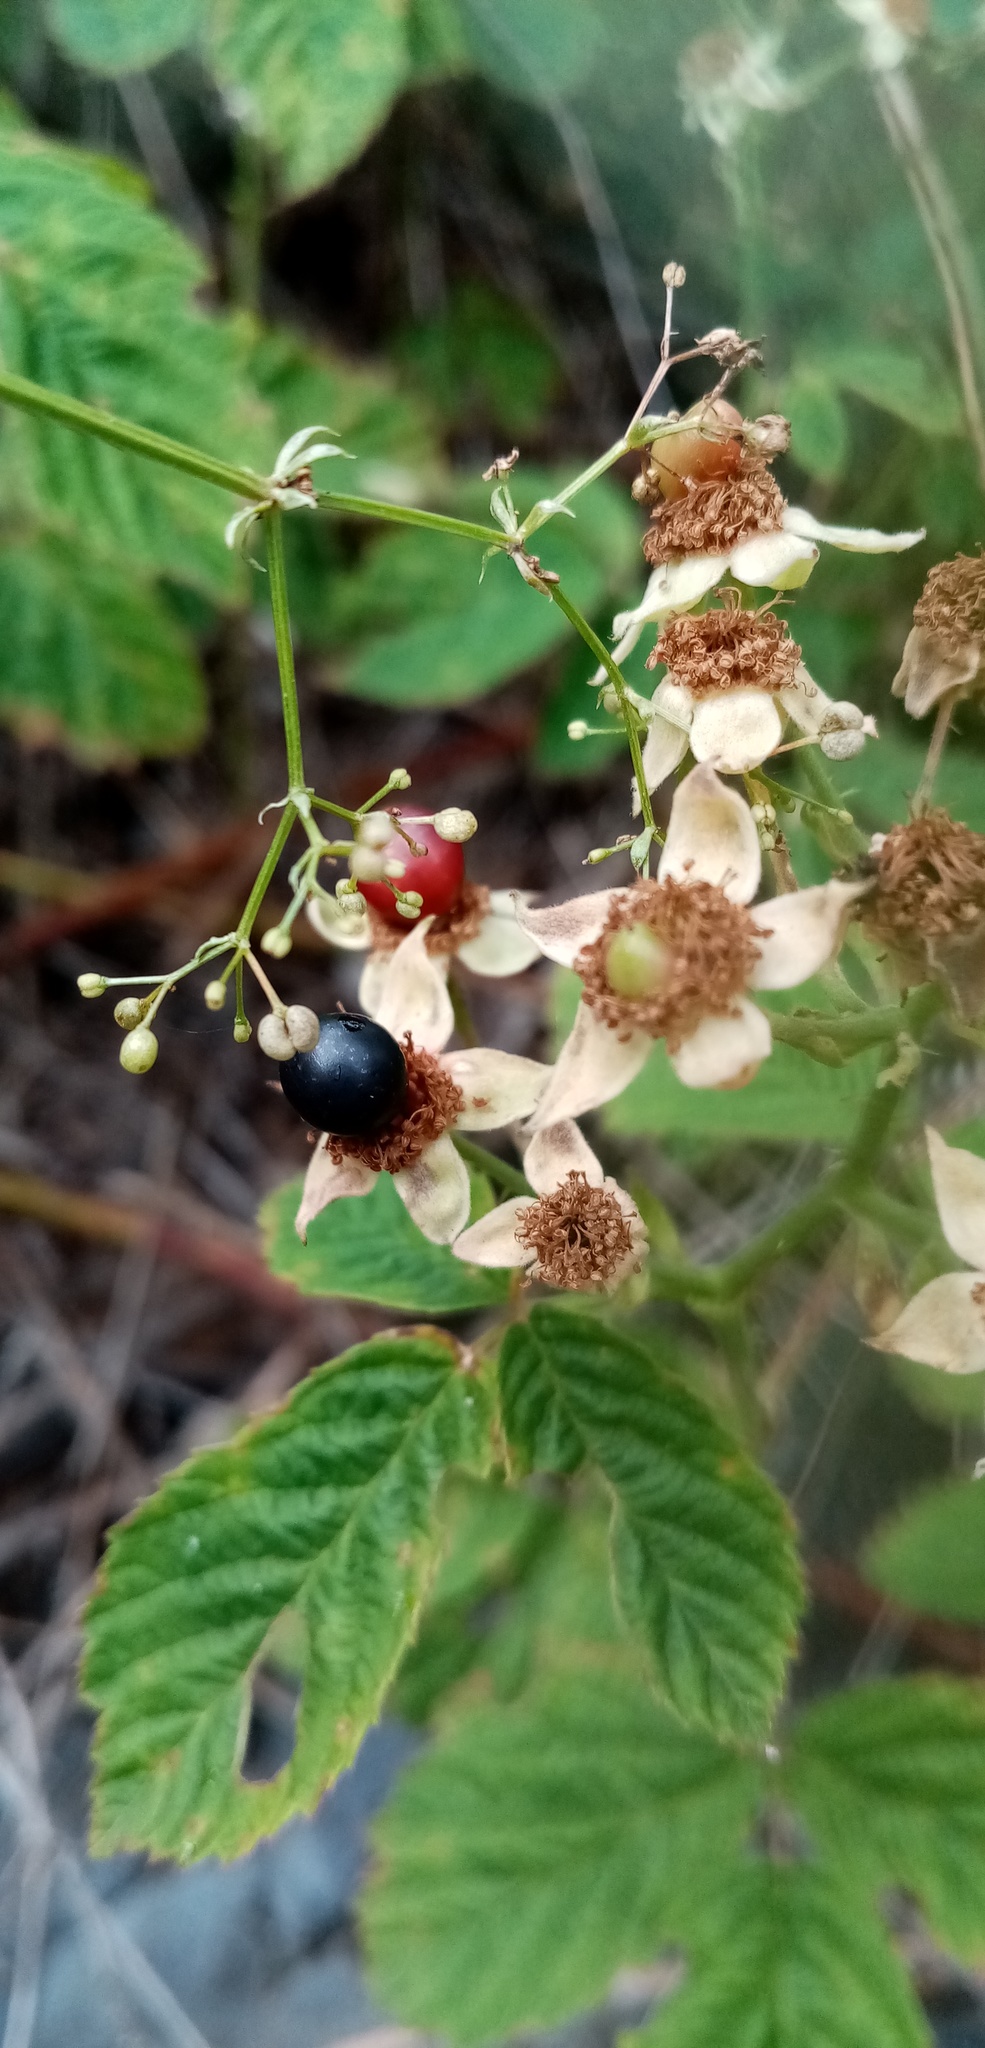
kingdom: Plantae
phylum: Tracheophyta
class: Magnoliopsida
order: Rosales
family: Rosaceae
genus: Rubus
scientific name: Rubus caesius
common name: Dewberry
